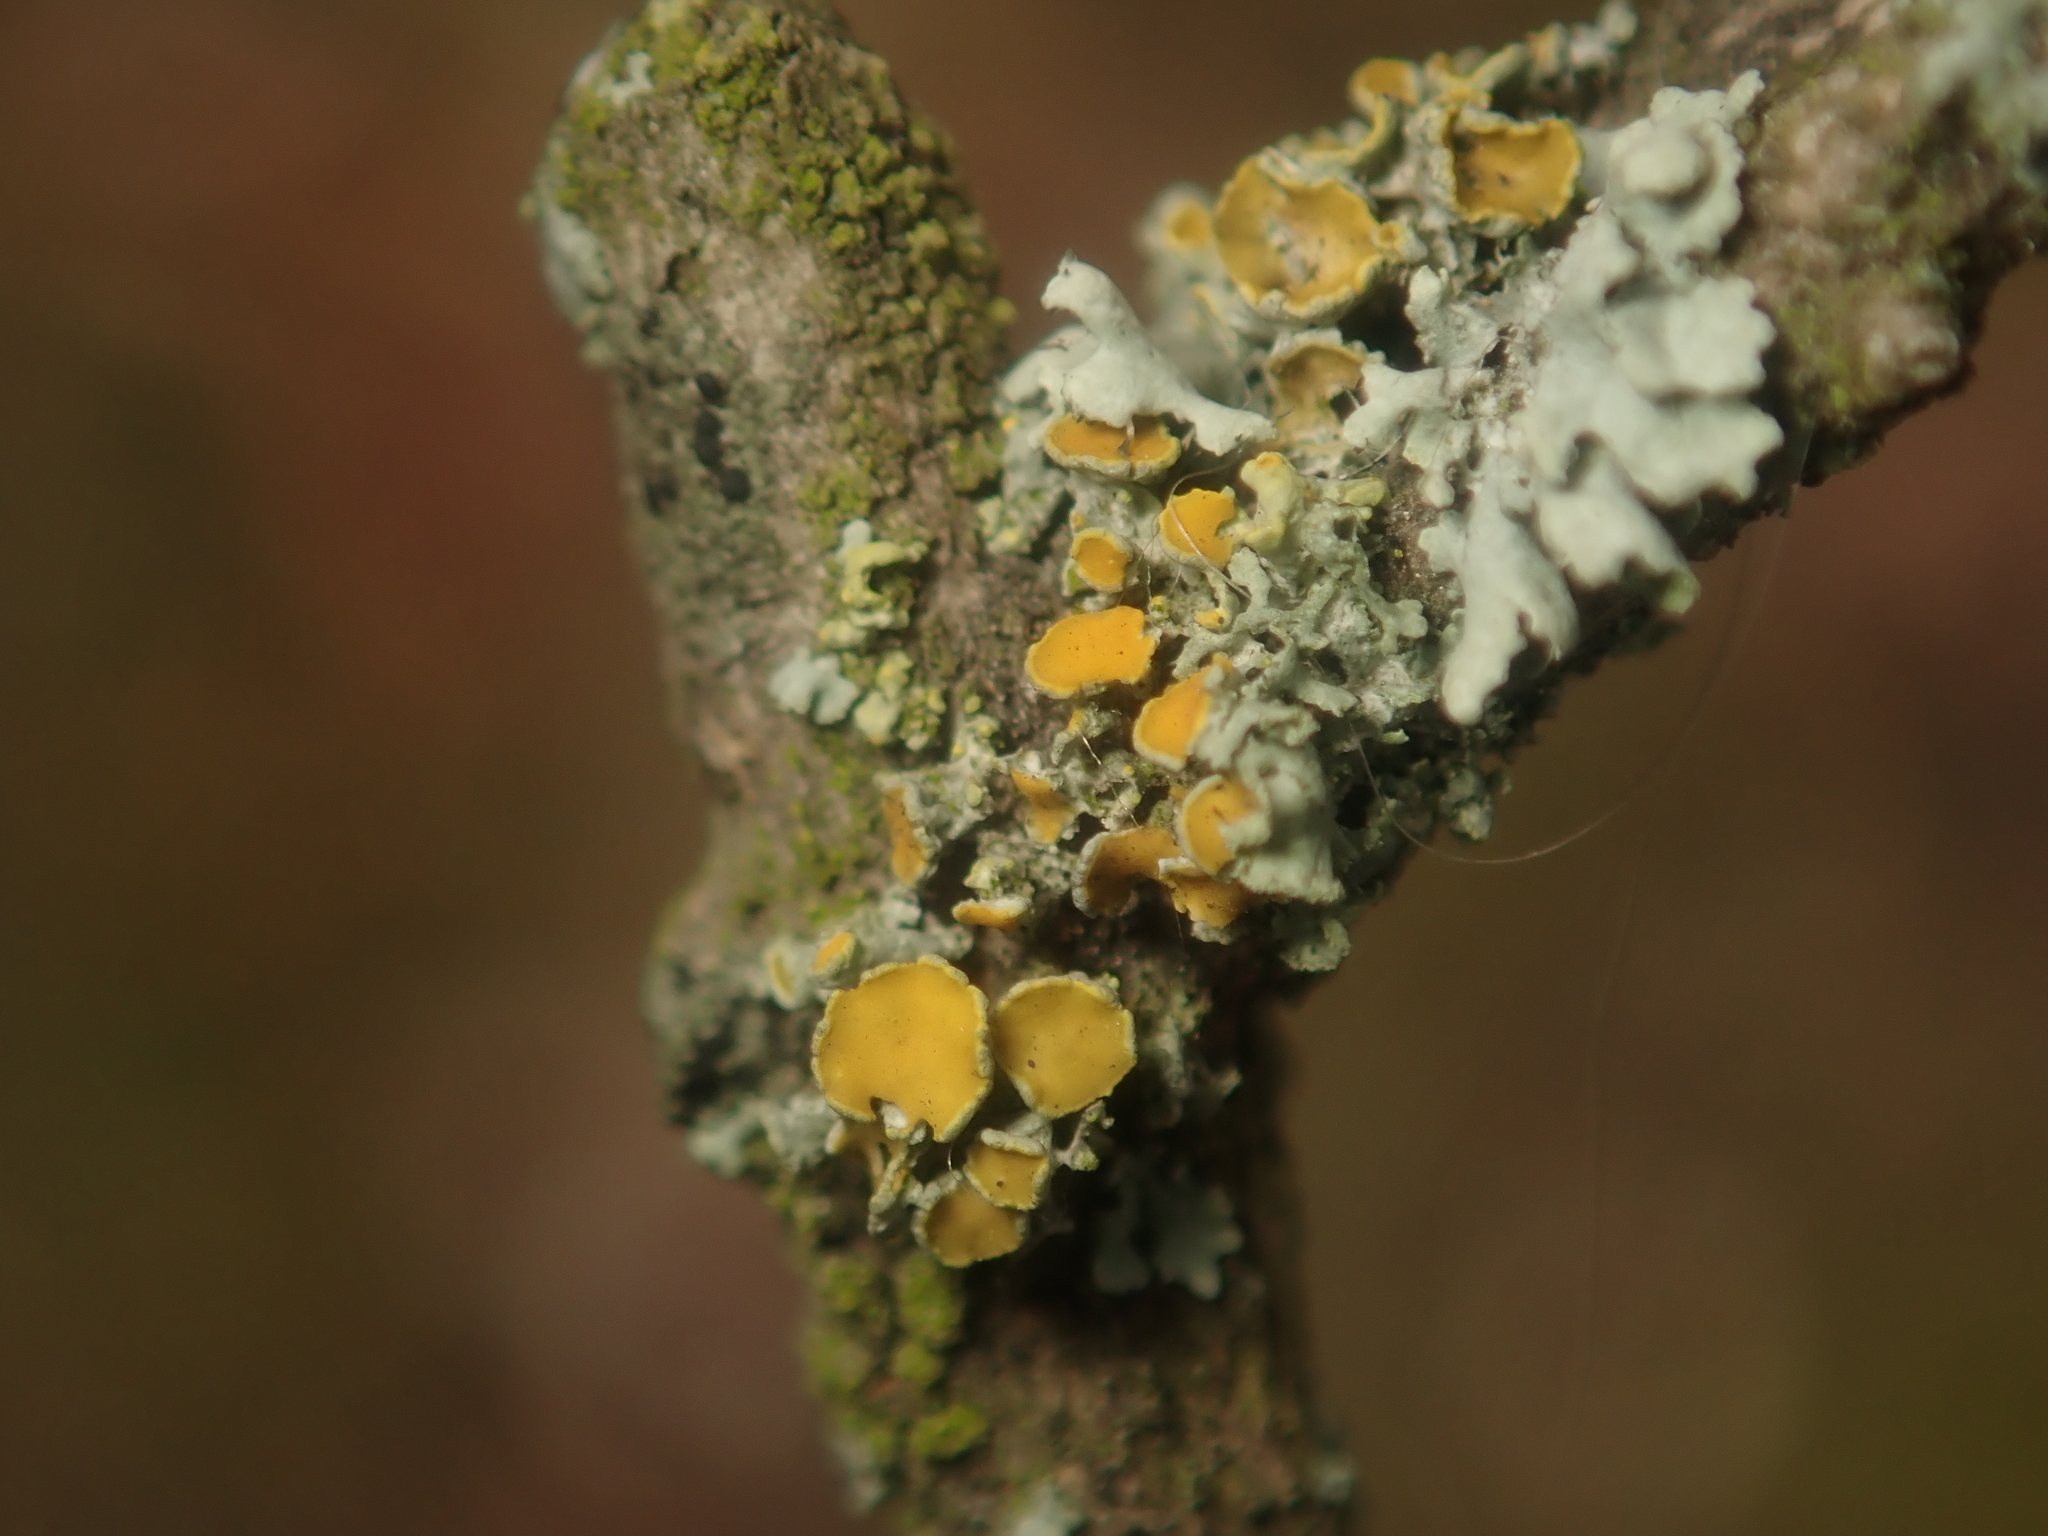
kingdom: Fungi
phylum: Ascomycota
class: Lecanoromycetes
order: Teloschistales
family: Teloschistaceae
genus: Polycauliona
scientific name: Polycauliona polycarpa
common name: Pin-cushion sunburst lichen
